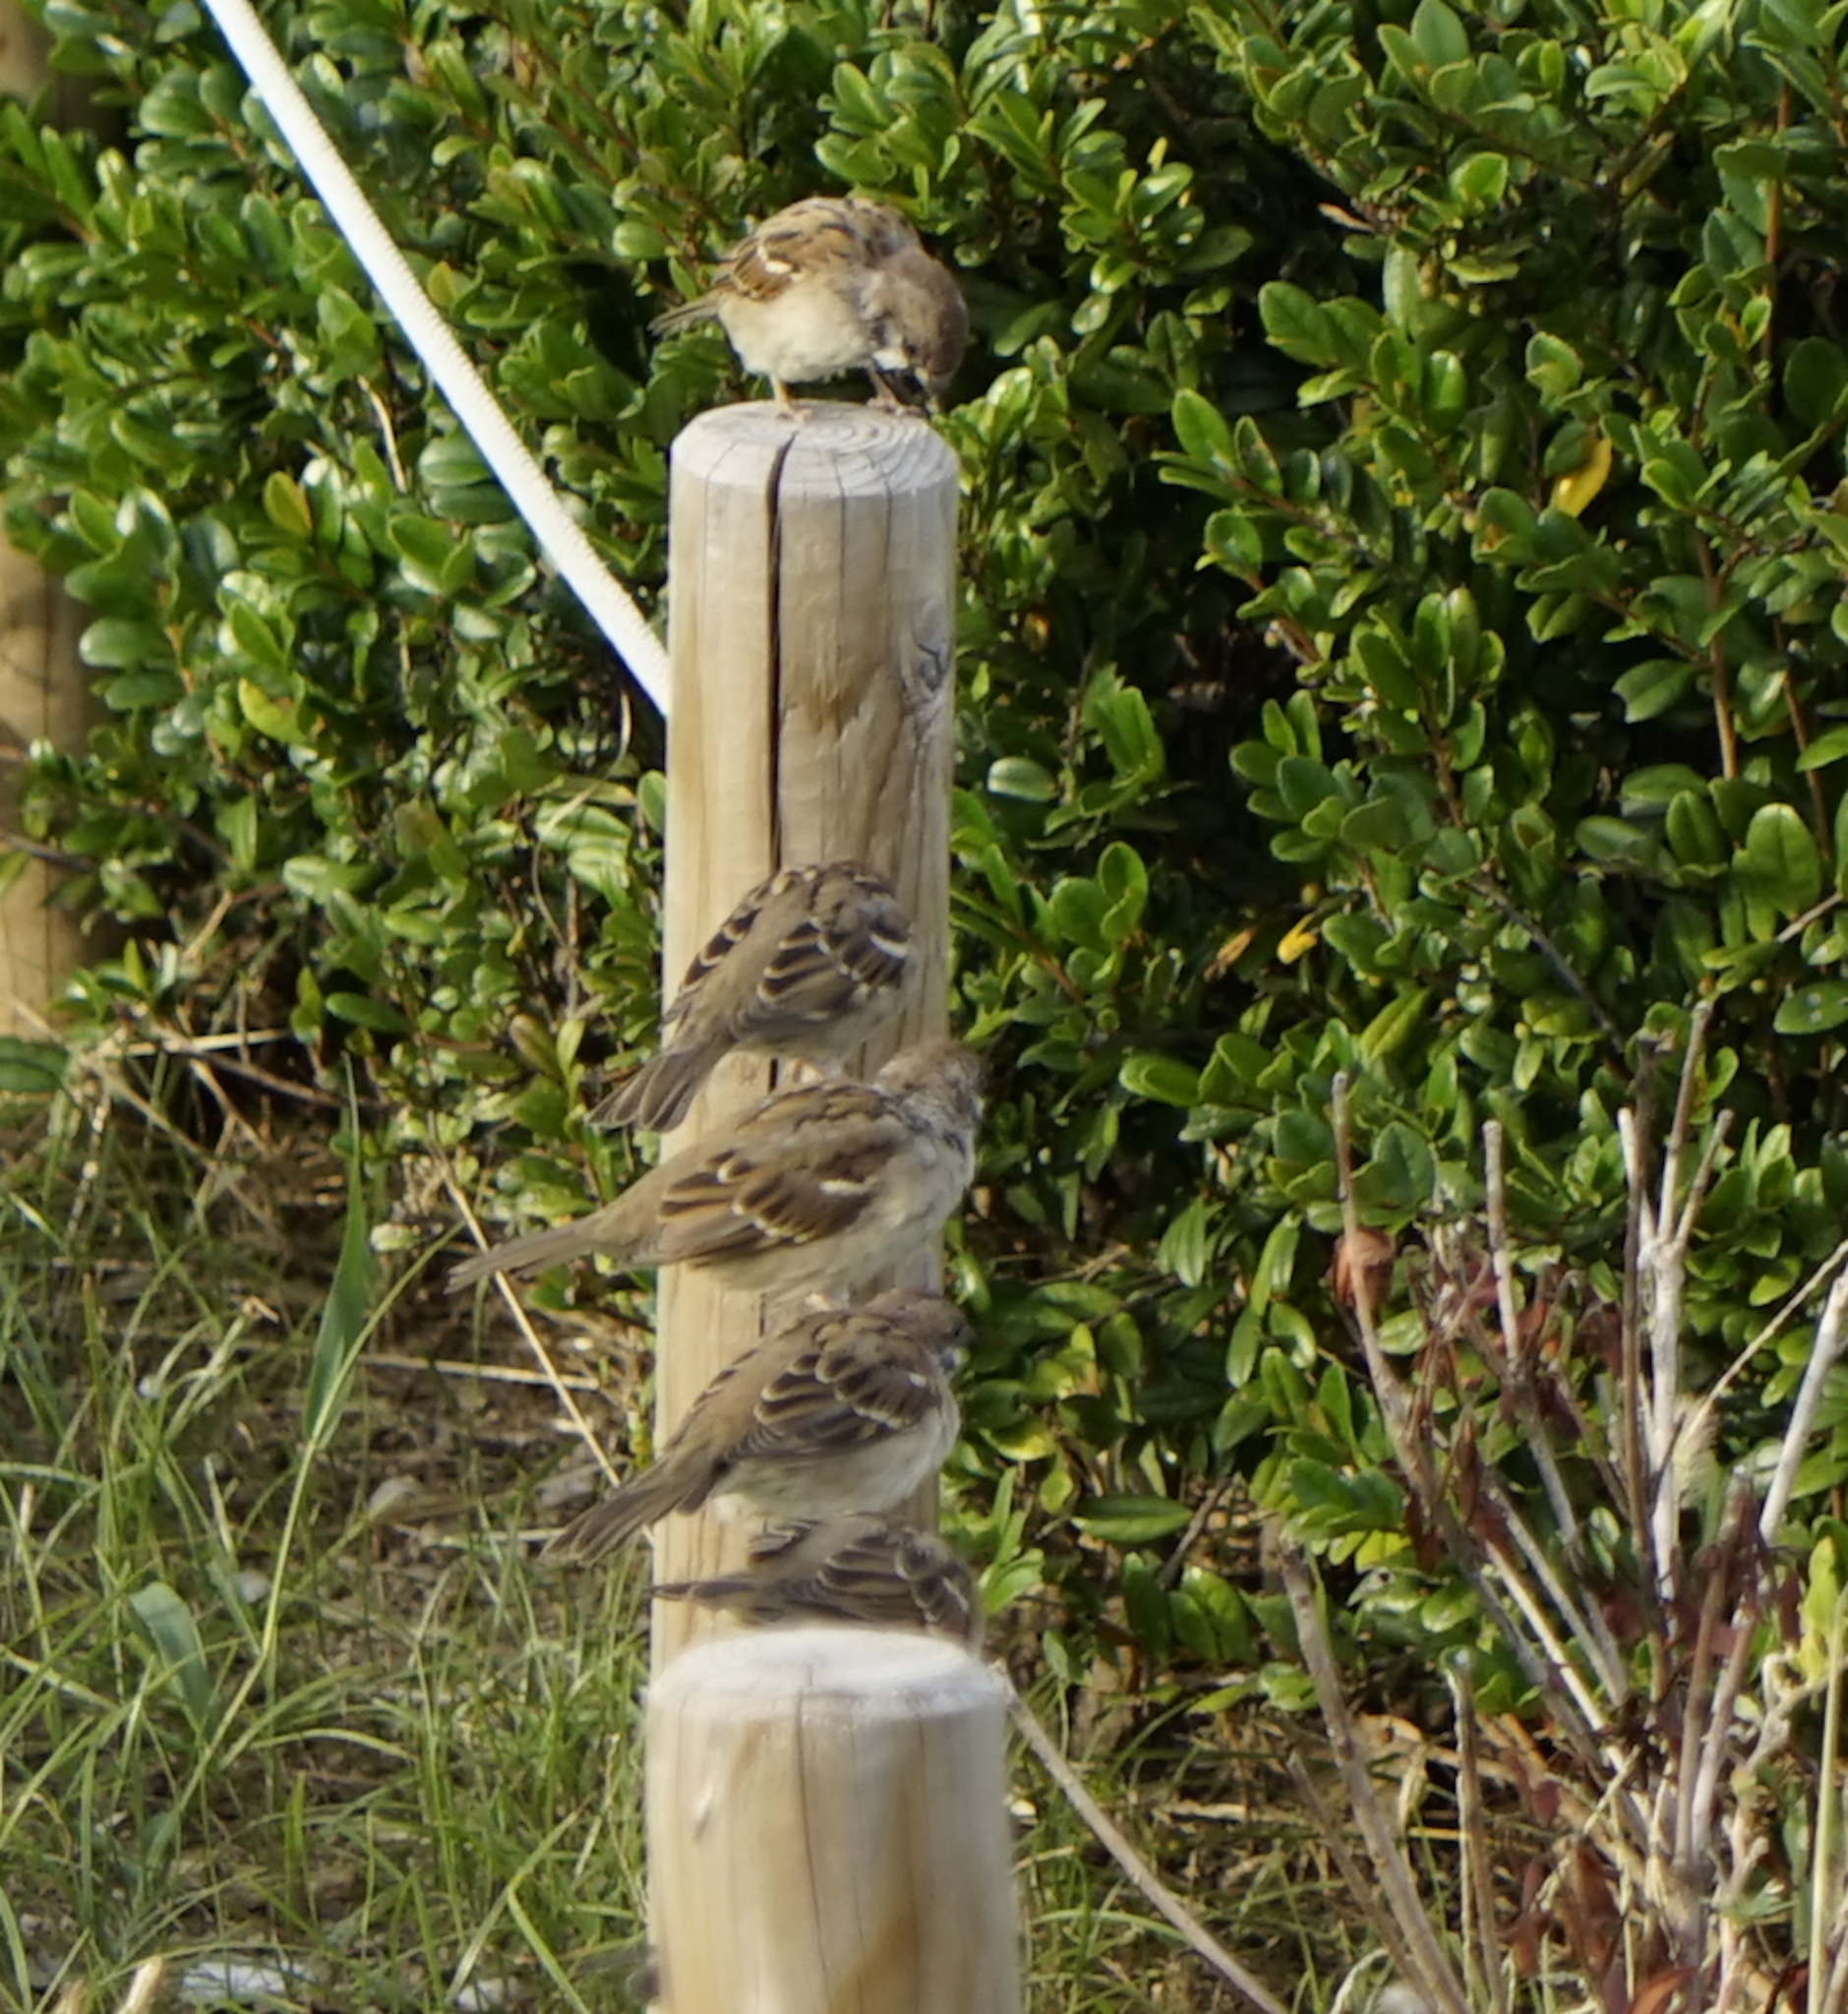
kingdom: Animalia
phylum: Chordata
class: Aves
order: Passeriformes
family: Passeridae
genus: Passer
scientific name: Passer montanus
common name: Eurasian tree sparrow
